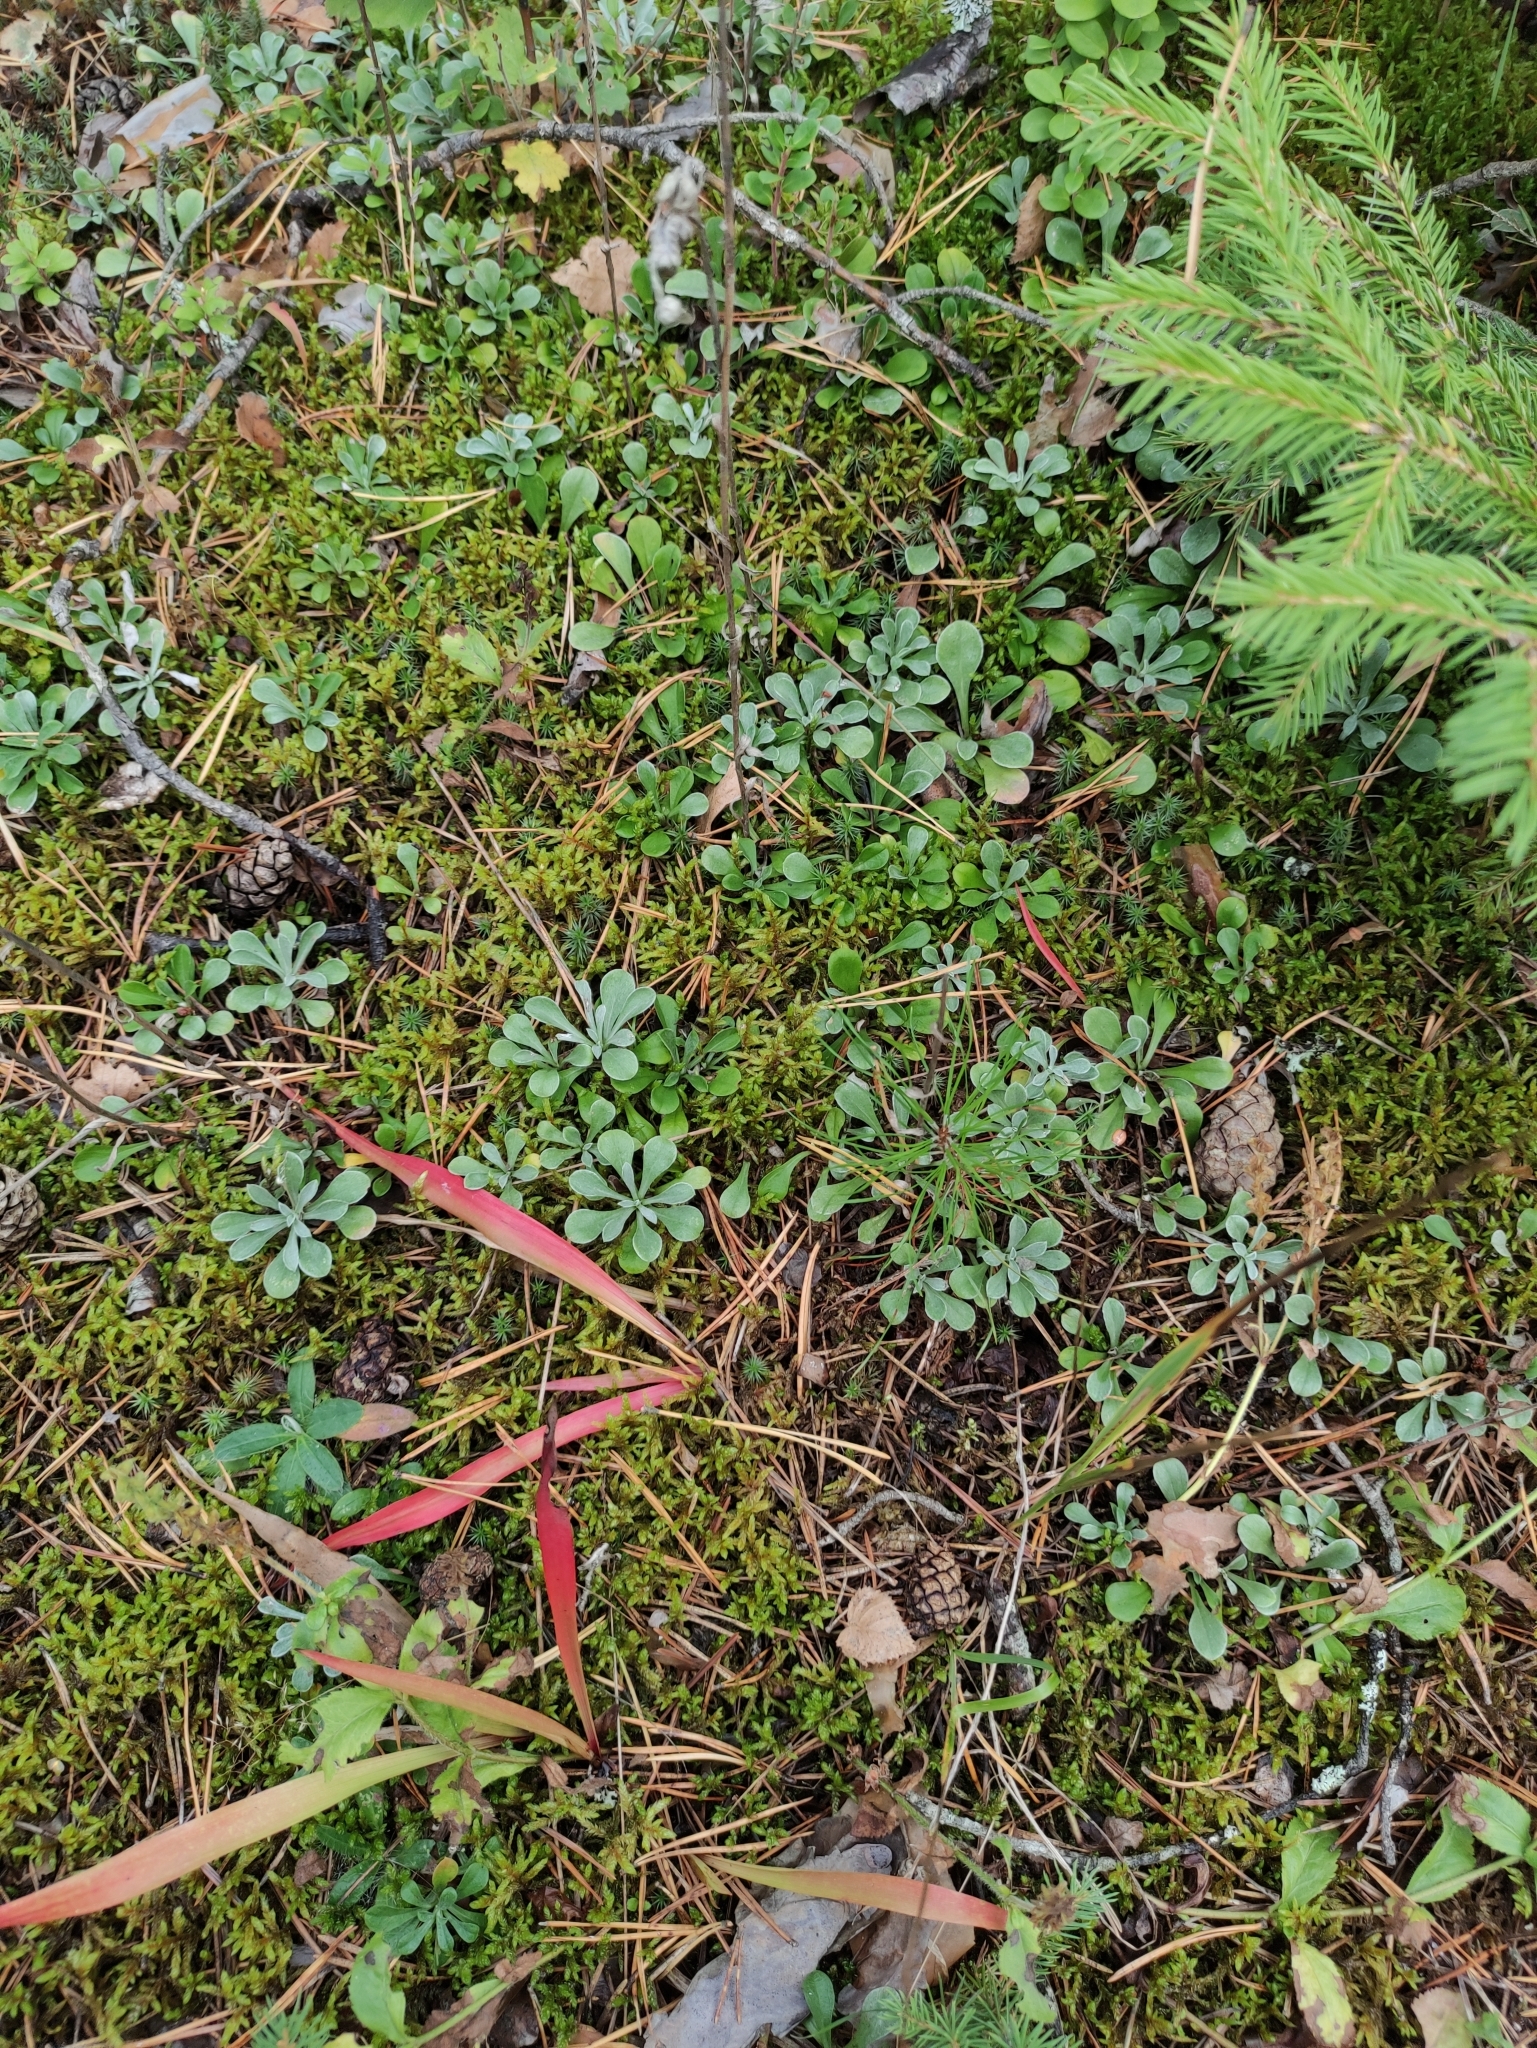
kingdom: Plantae
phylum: Tracheophyta
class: Magnoliopsida
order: Asterales
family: Asteraceae
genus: Antennaria
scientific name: Antennaria dioica
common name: Mountain everlasting
